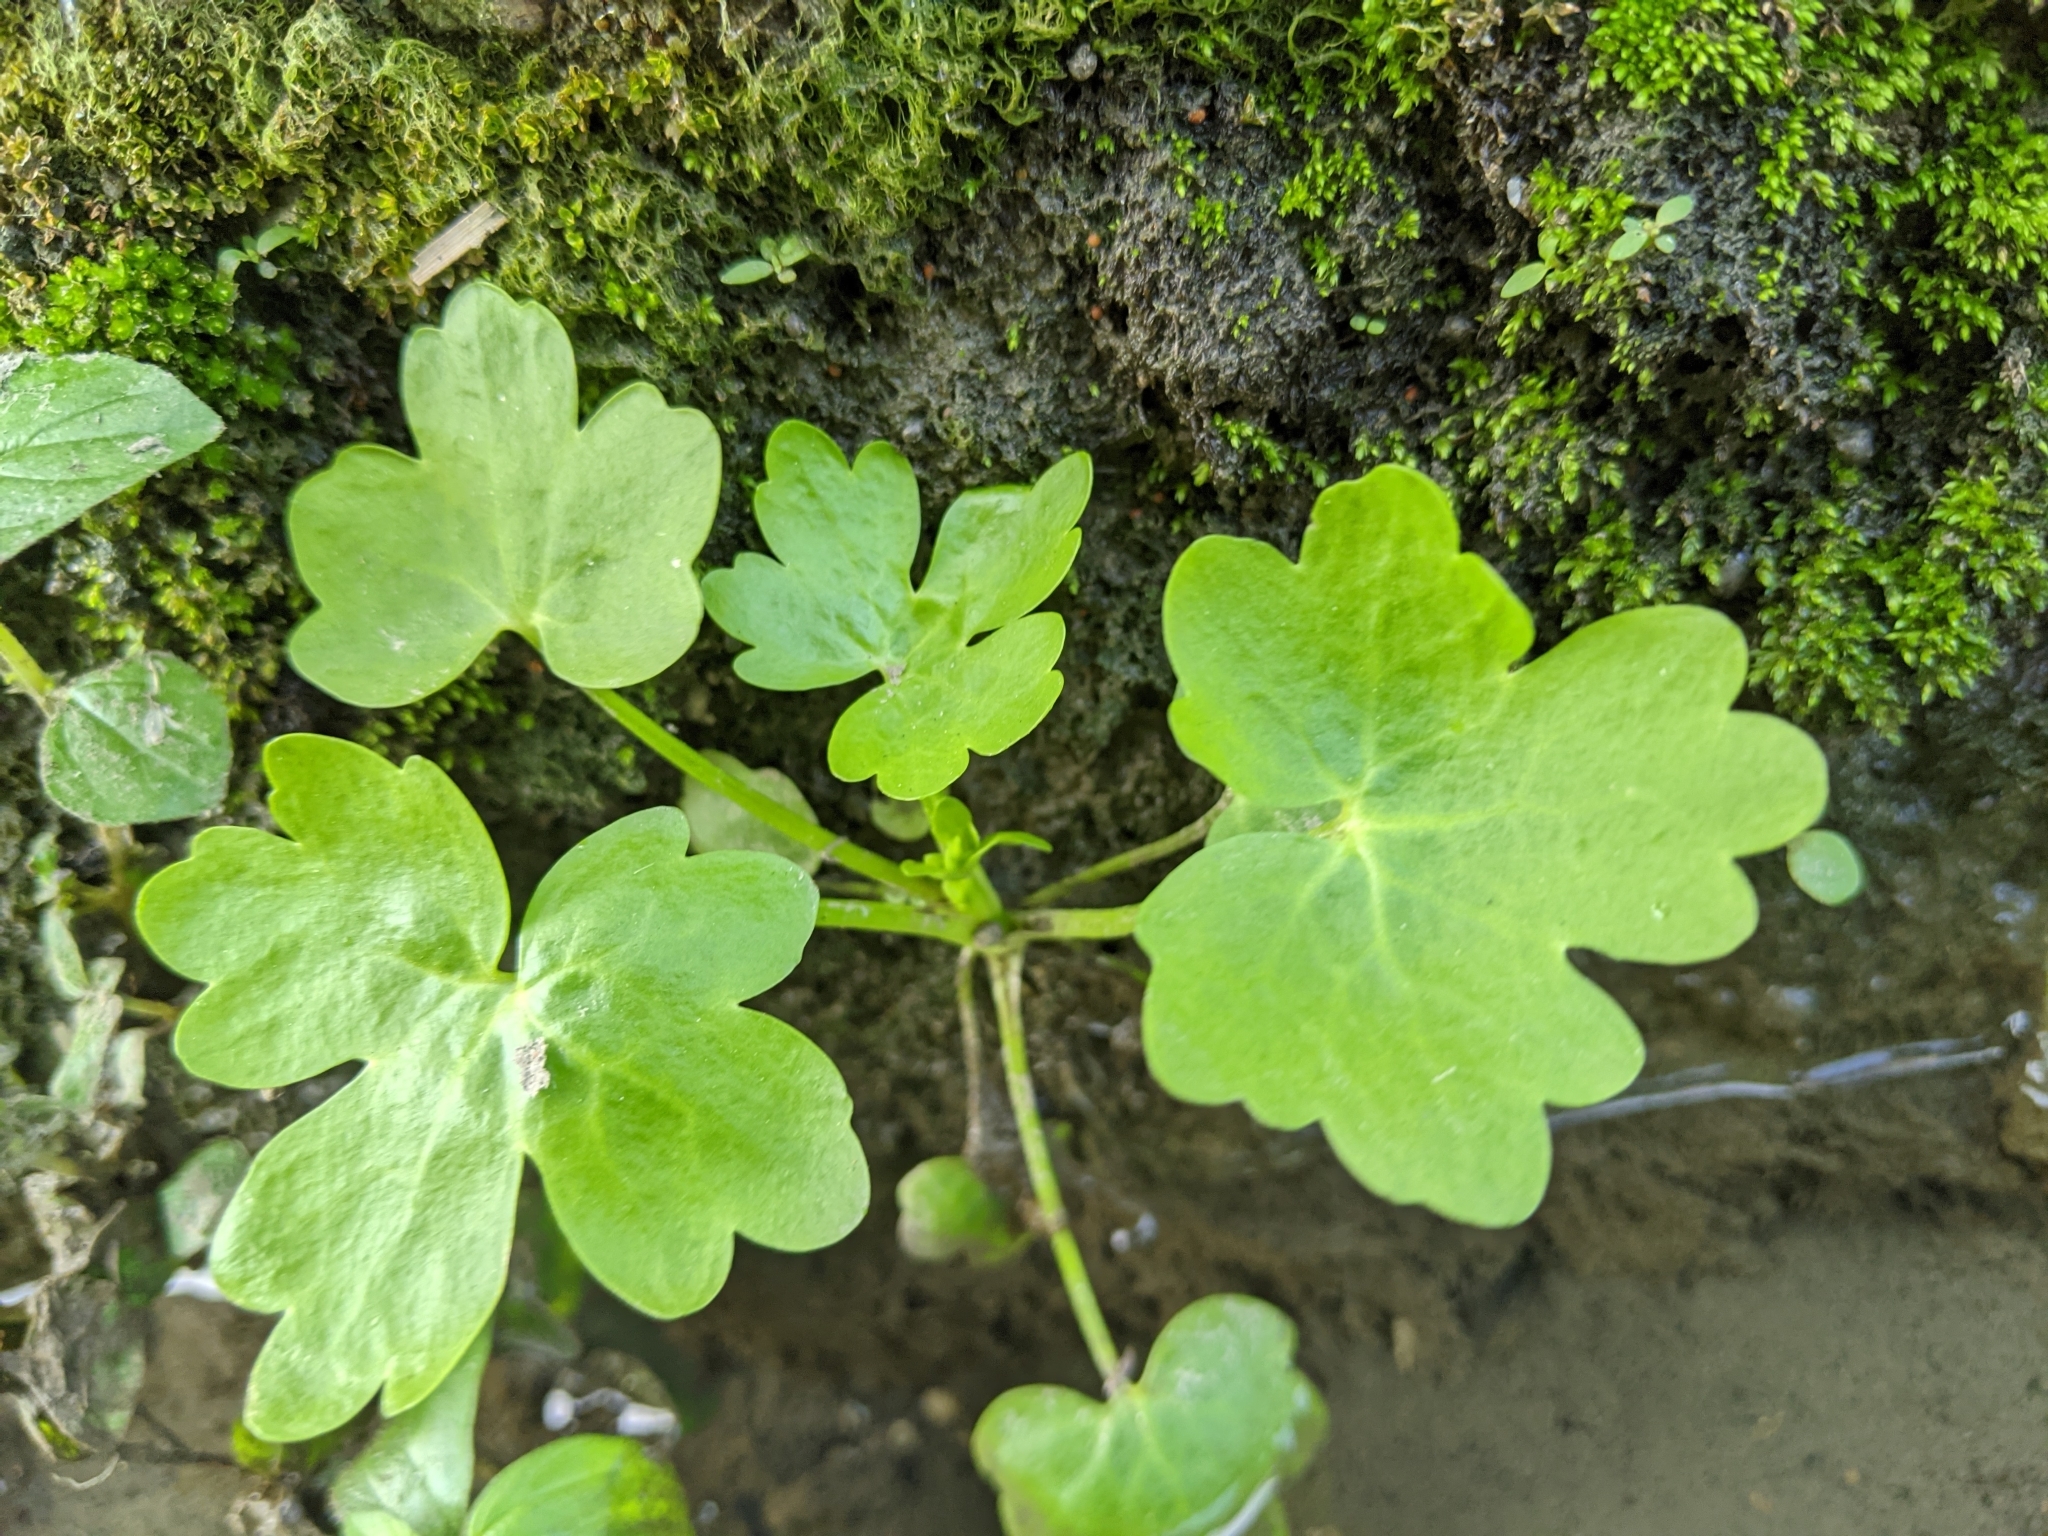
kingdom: Plantae
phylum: Tracheophyta
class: Magnoliopsida
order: Ranunculales
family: Ranunculaceae
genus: Ranunculus
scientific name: Ranunculus sceleratus
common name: Celery-leaved buttercup
